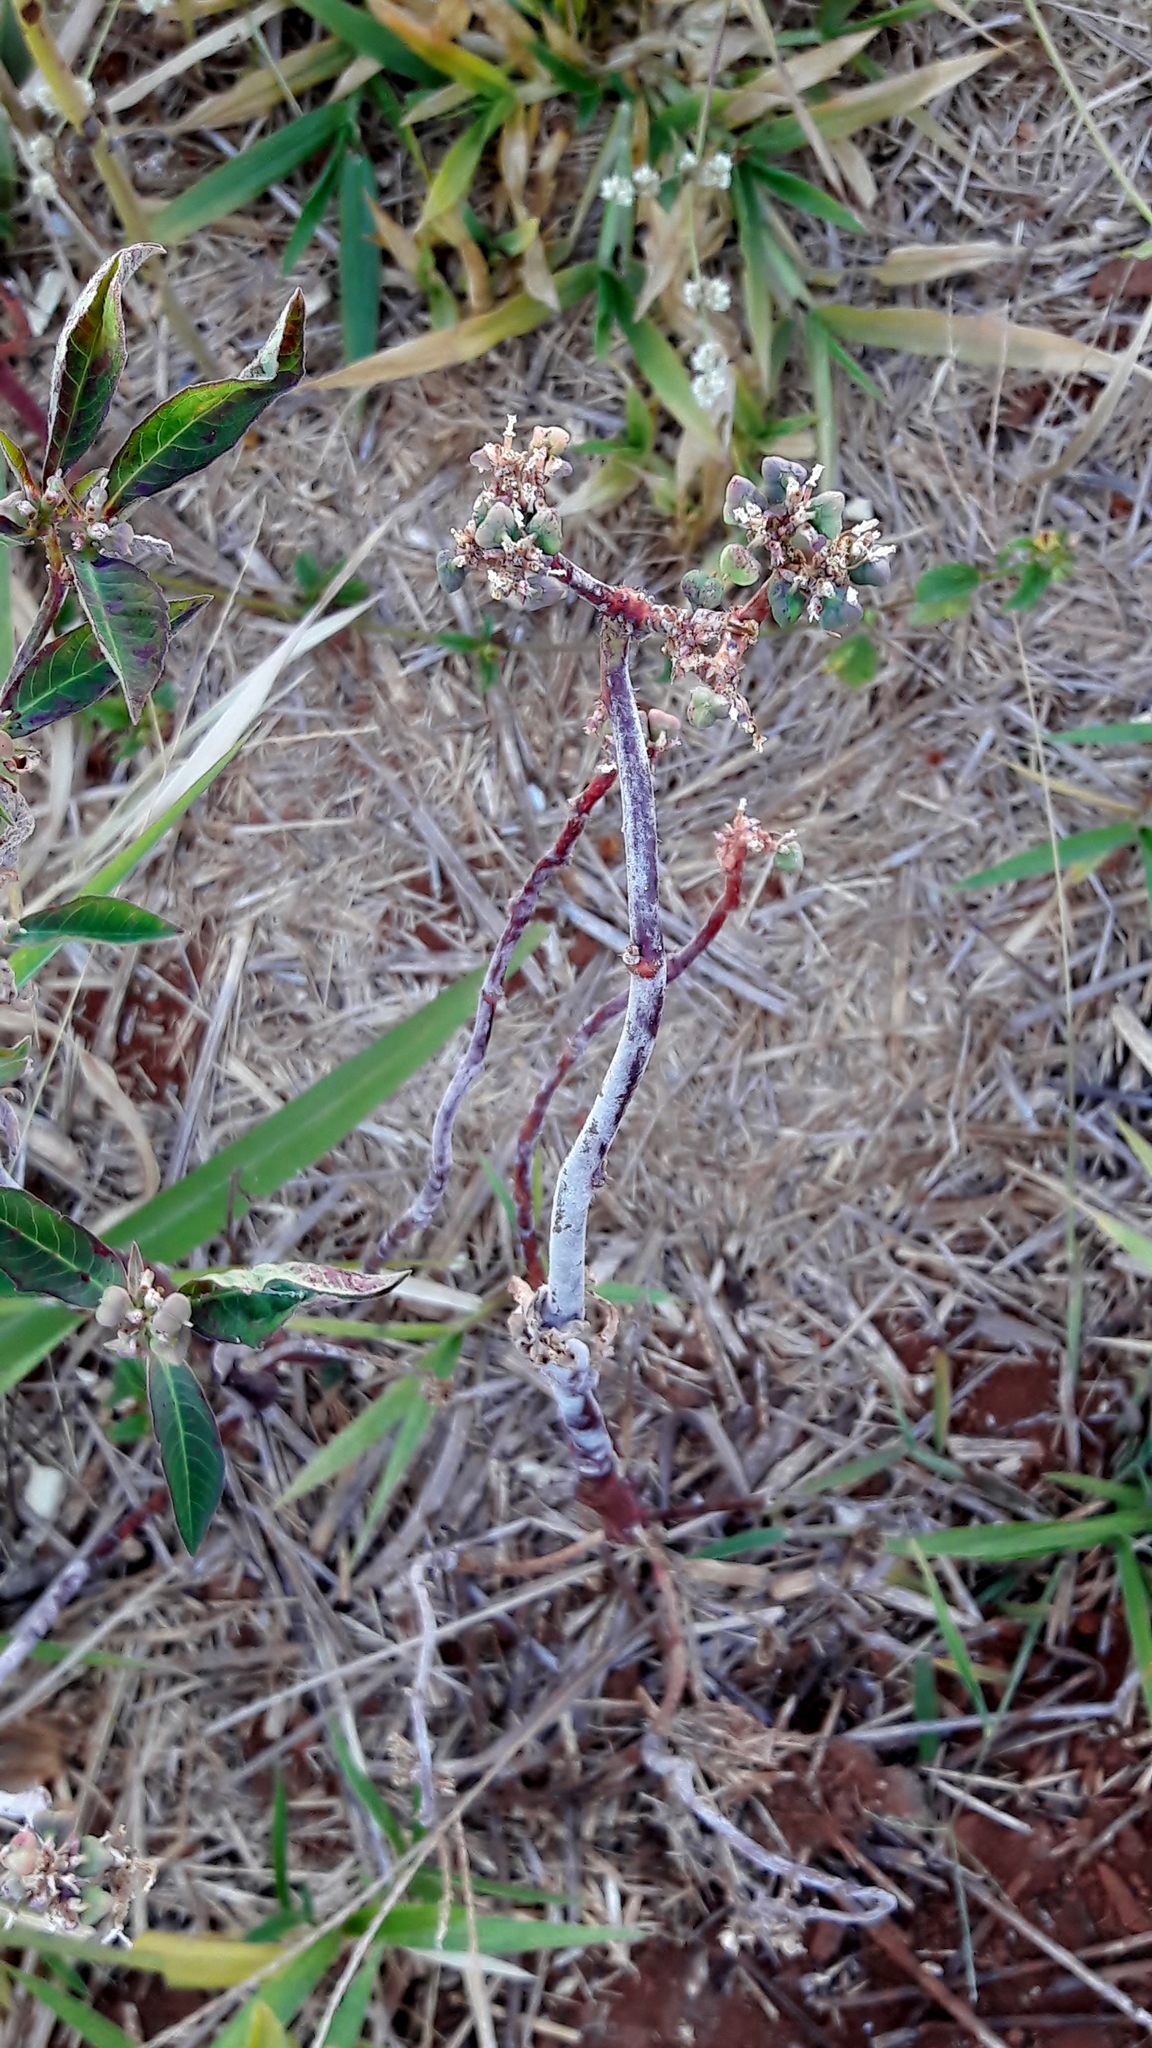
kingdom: Plantae
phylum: Tracheophyta
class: Magnoliopsida
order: Malpighiales
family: Euphorbiaceae
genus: Euphorbia
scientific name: Euphorbia heterophylla
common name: Mexican fireplant
